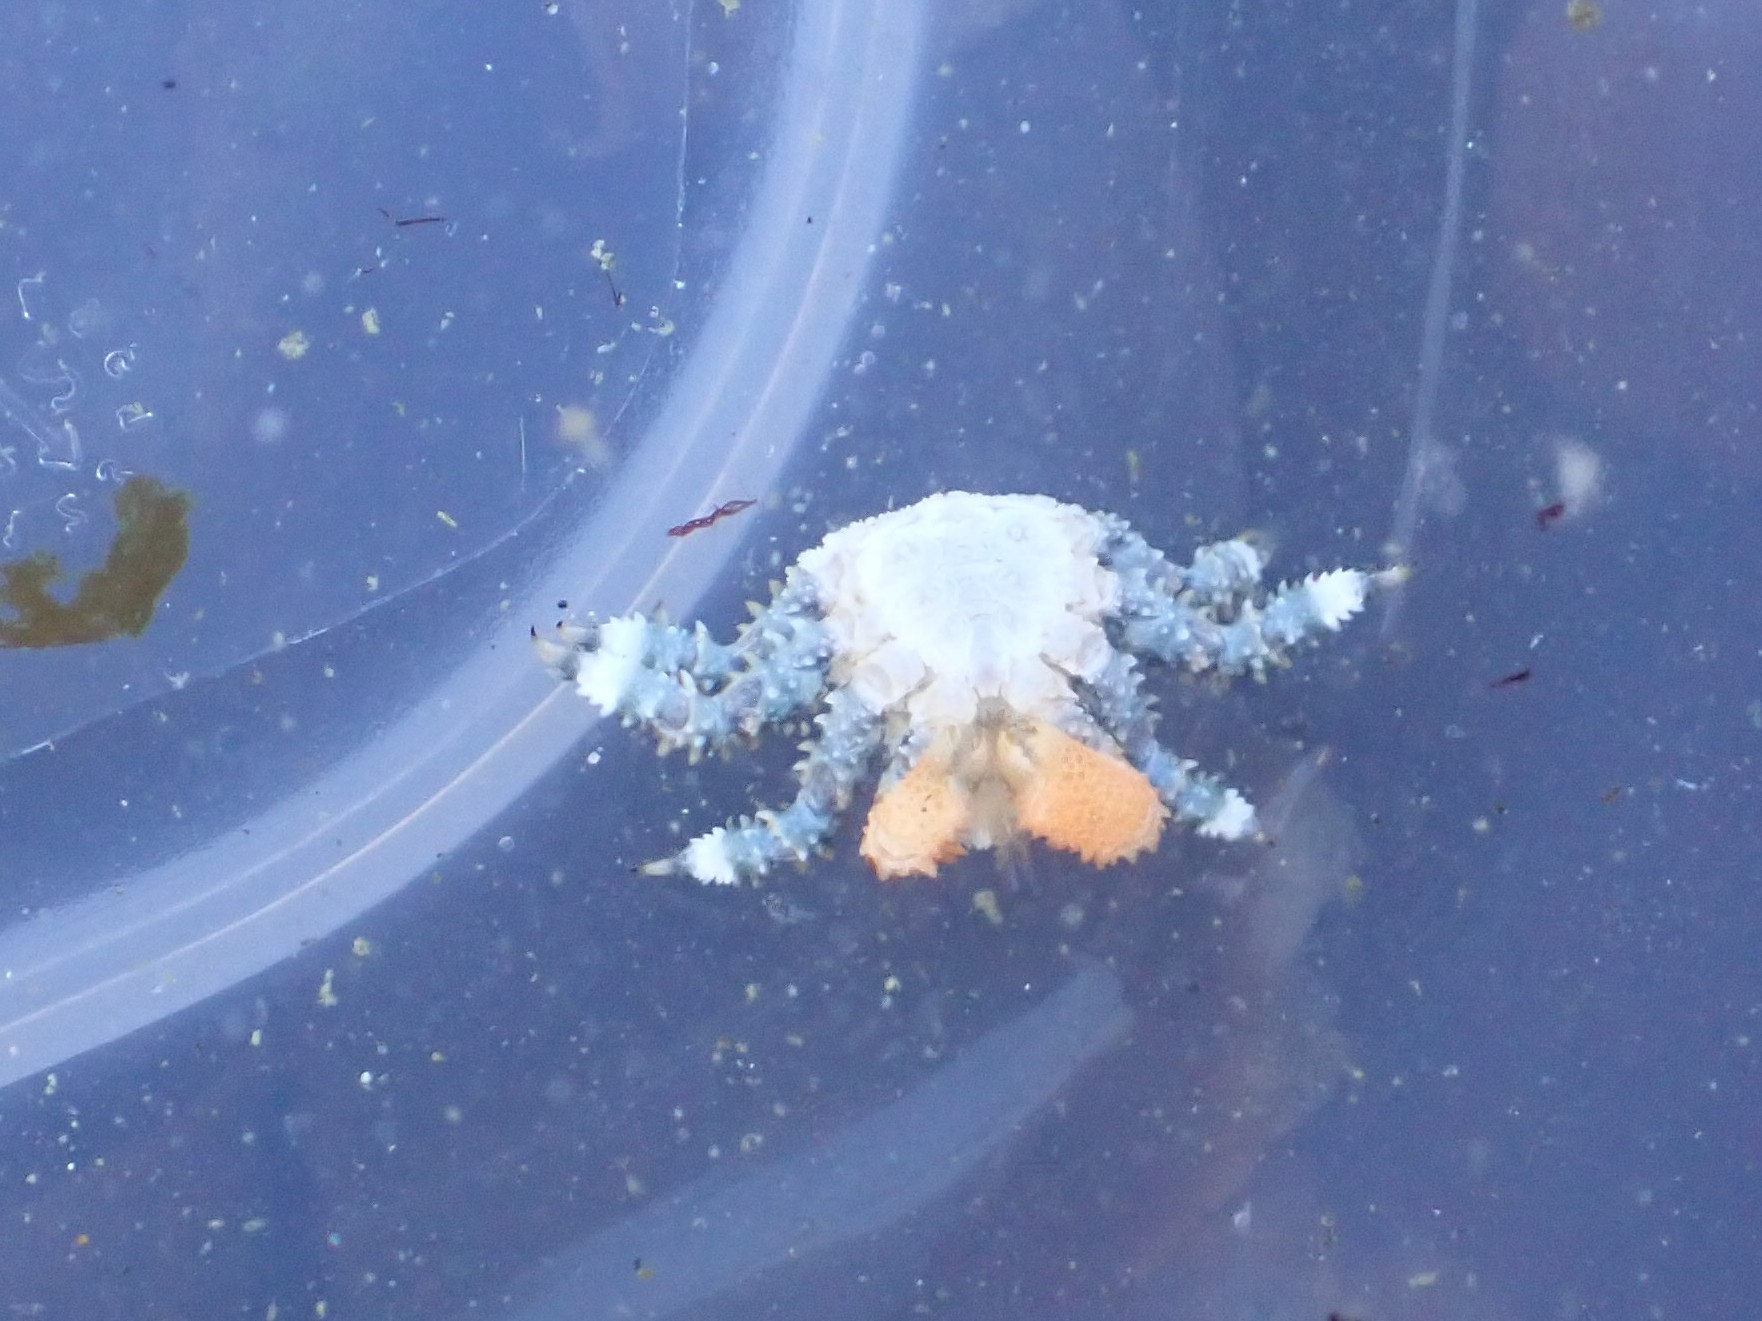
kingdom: Animalia
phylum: Arthropoda
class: Malacostraca
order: Decapoda
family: Lithodidae
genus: Phyllolithodes
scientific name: Phyllolithodes papillosus
